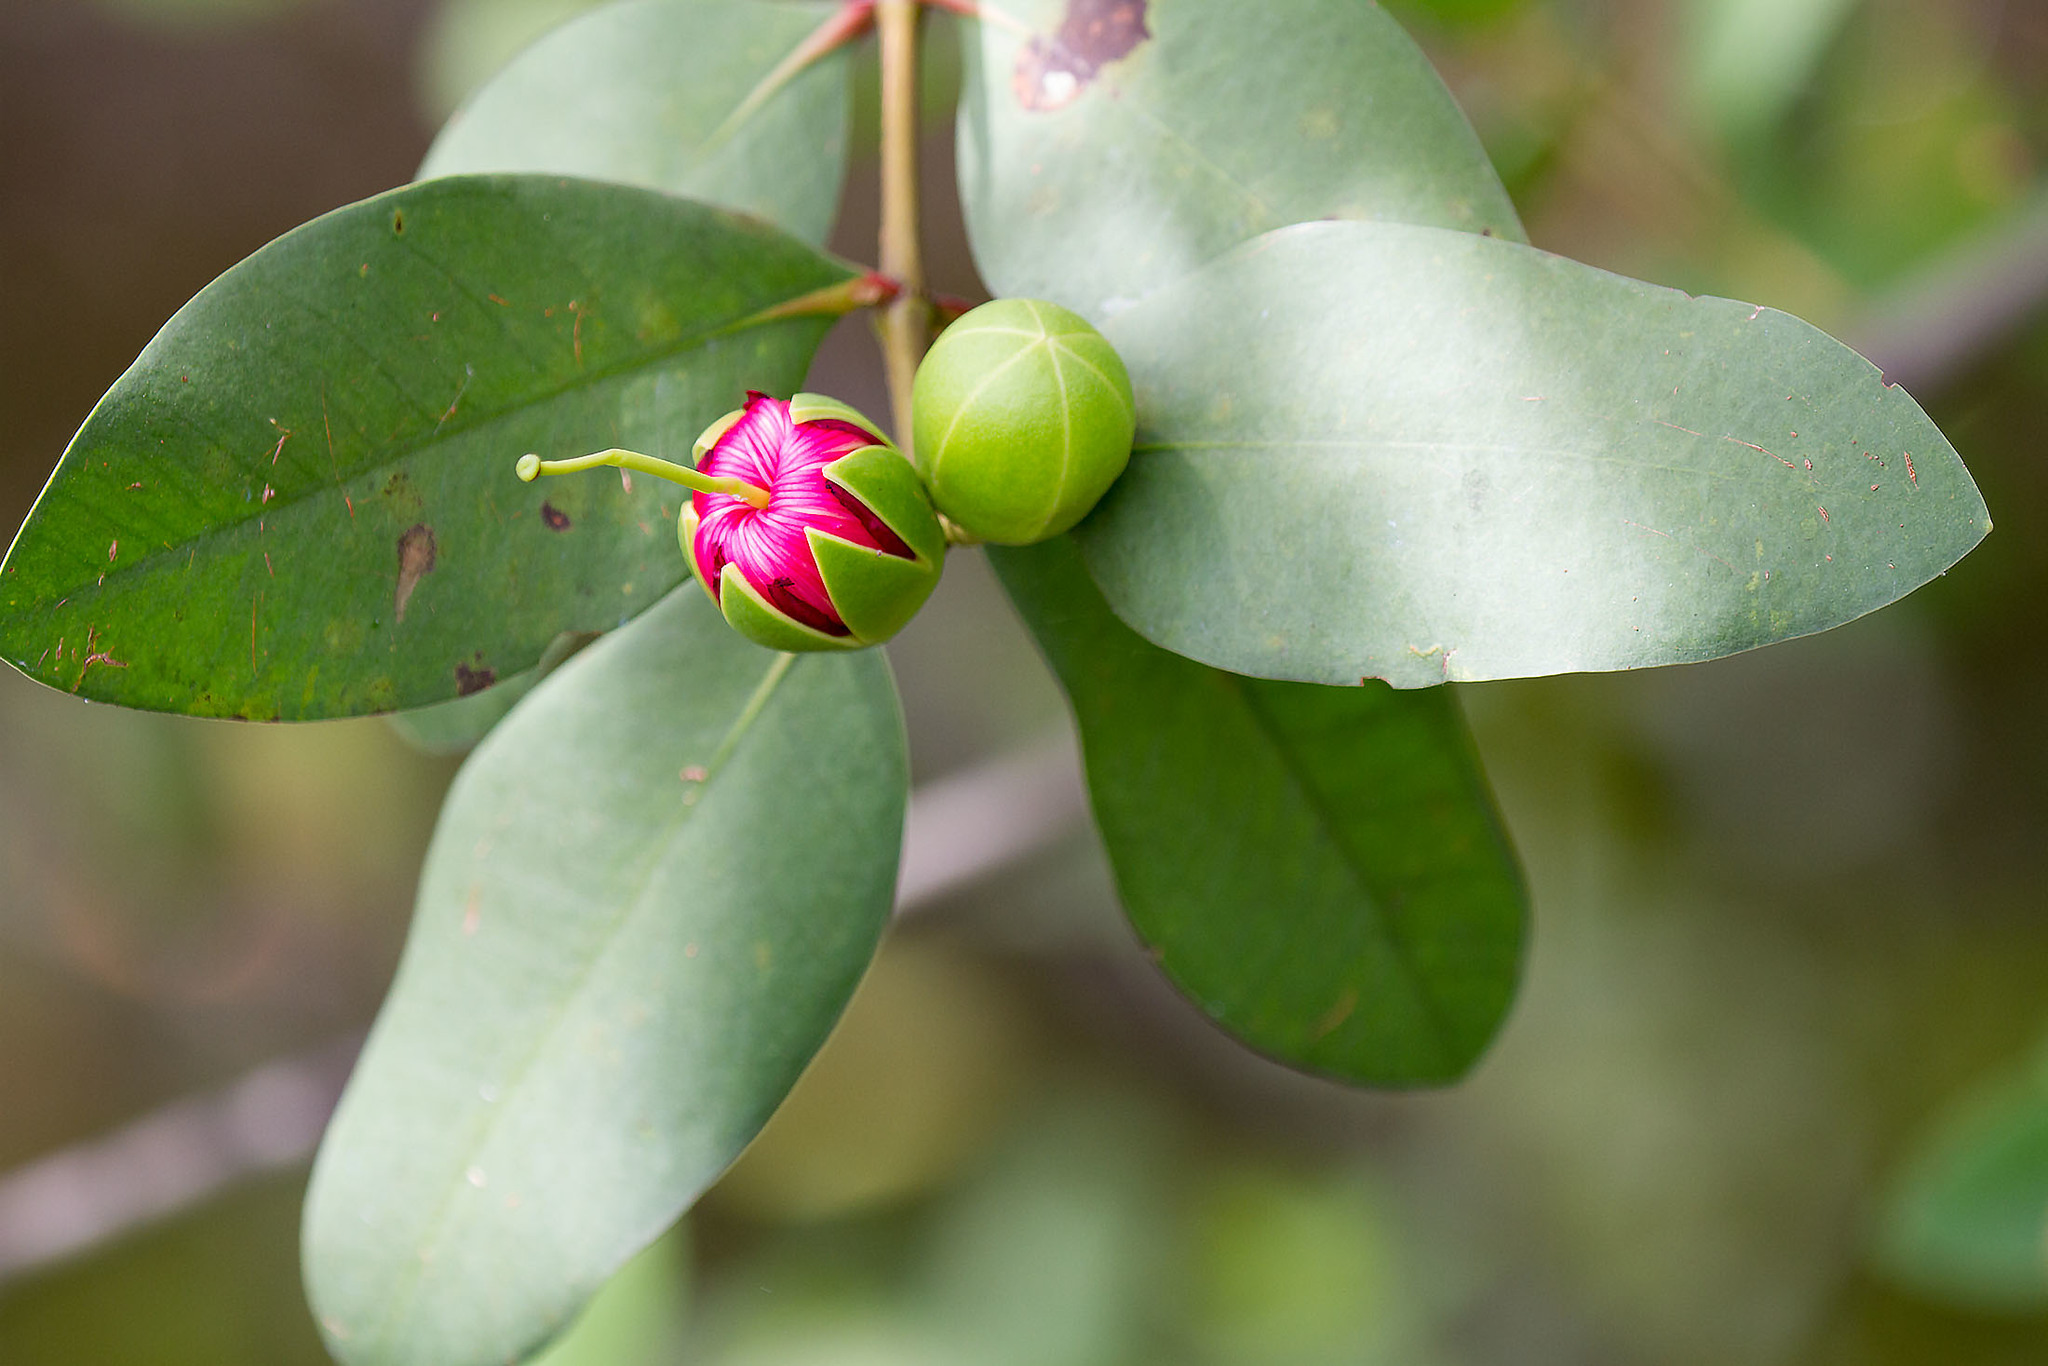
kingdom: Plantae
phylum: Tracheophyta
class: Magnoliopsida
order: Myrtales
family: Lythraceae
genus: Sonneratia
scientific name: Sonneratia caseolaris
